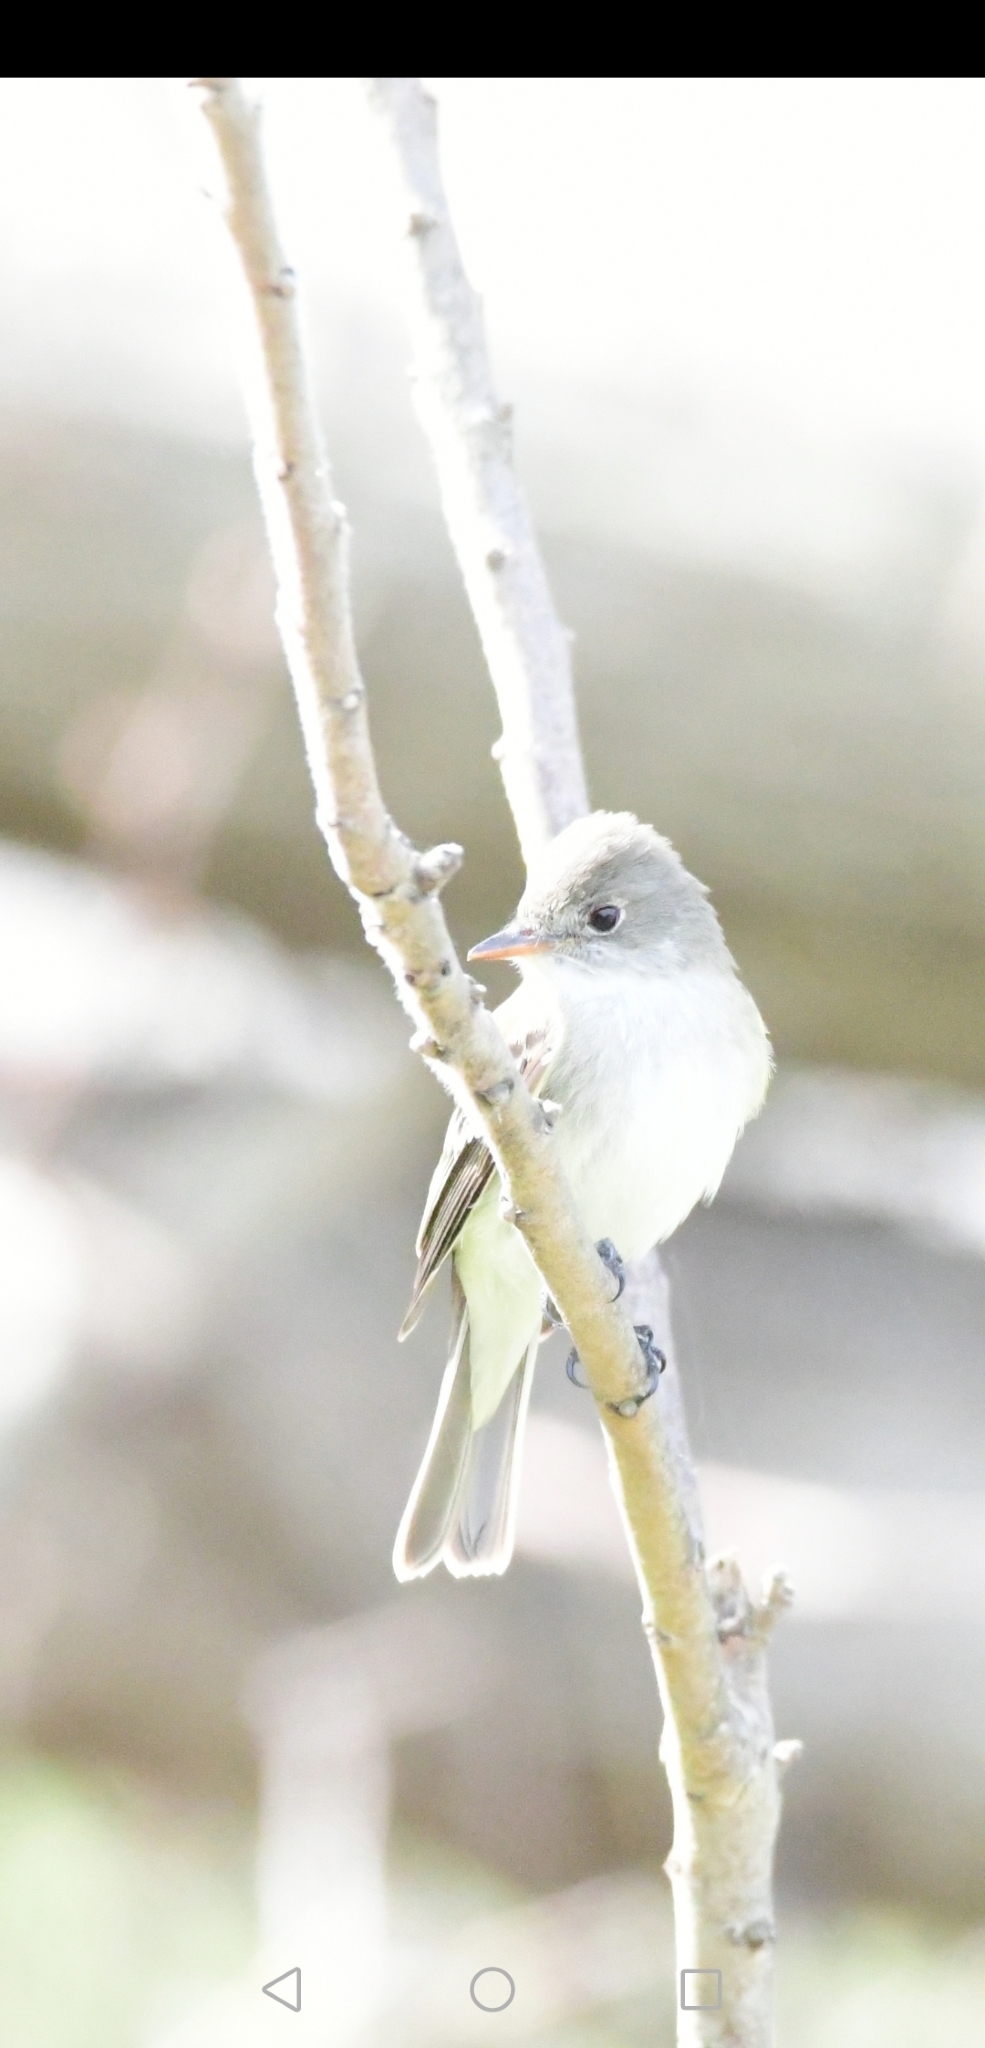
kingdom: Animalia
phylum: Chordata
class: Aves
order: Passeriformes
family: Tyrannidae
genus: Empidonax
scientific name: Empidonax
